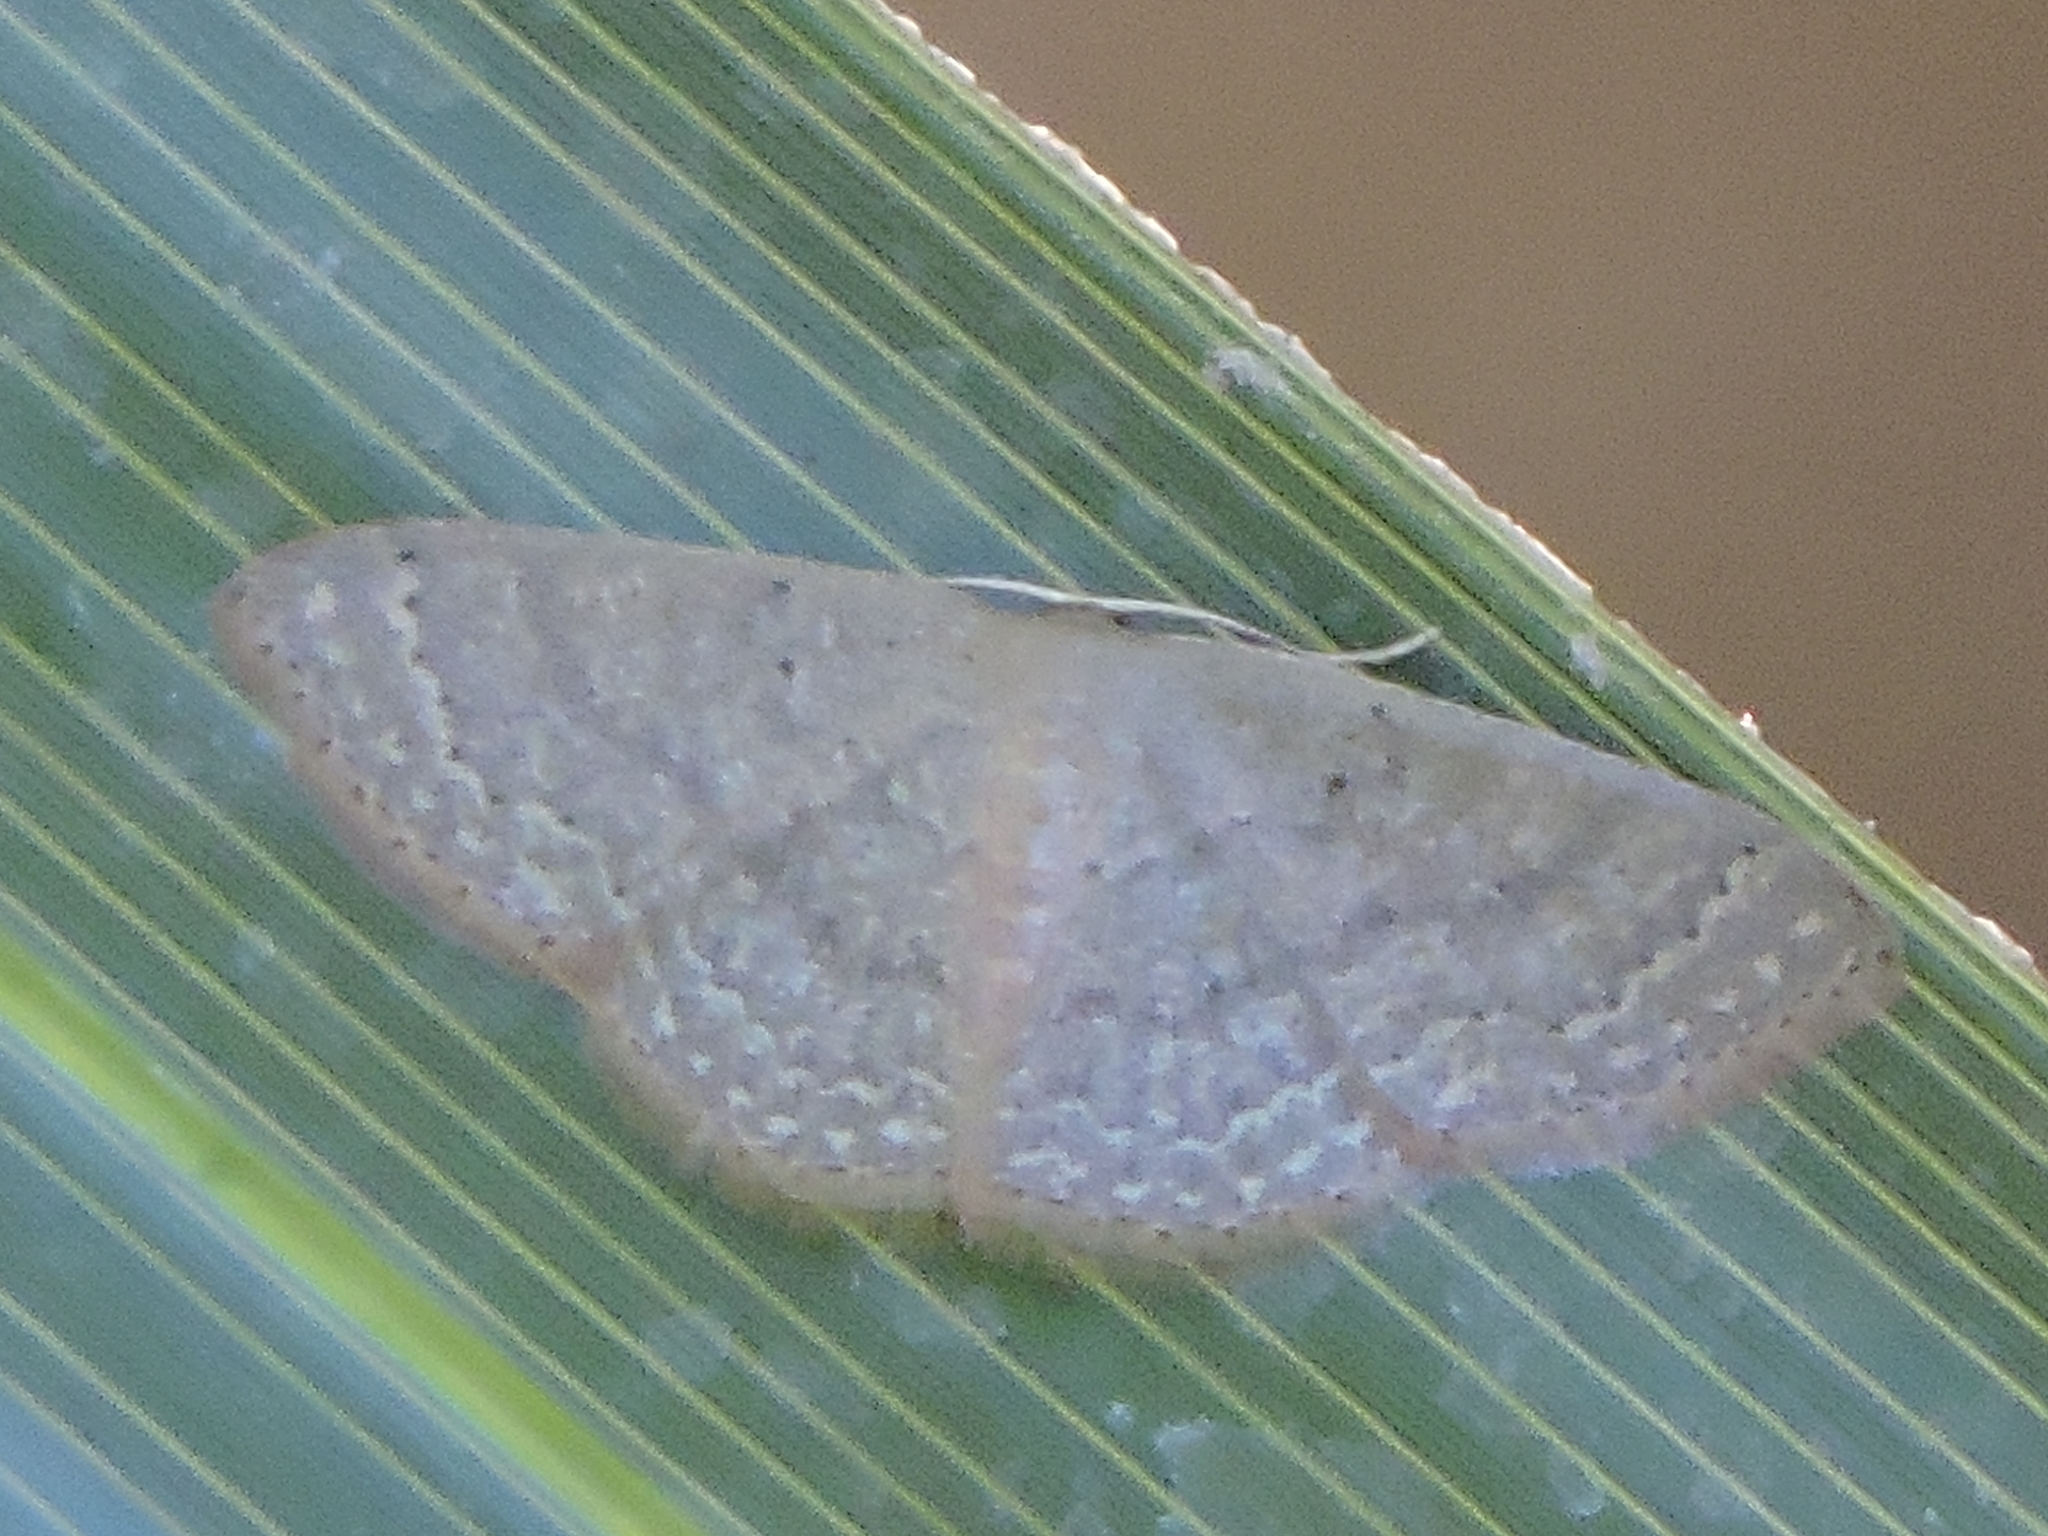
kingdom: Animalia
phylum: Arthropoda
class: Insecta
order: Lepidoptera
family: Geometridae
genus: Pleuroprucha
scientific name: Pleuroprucha insulsaria
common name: Common tan wave
